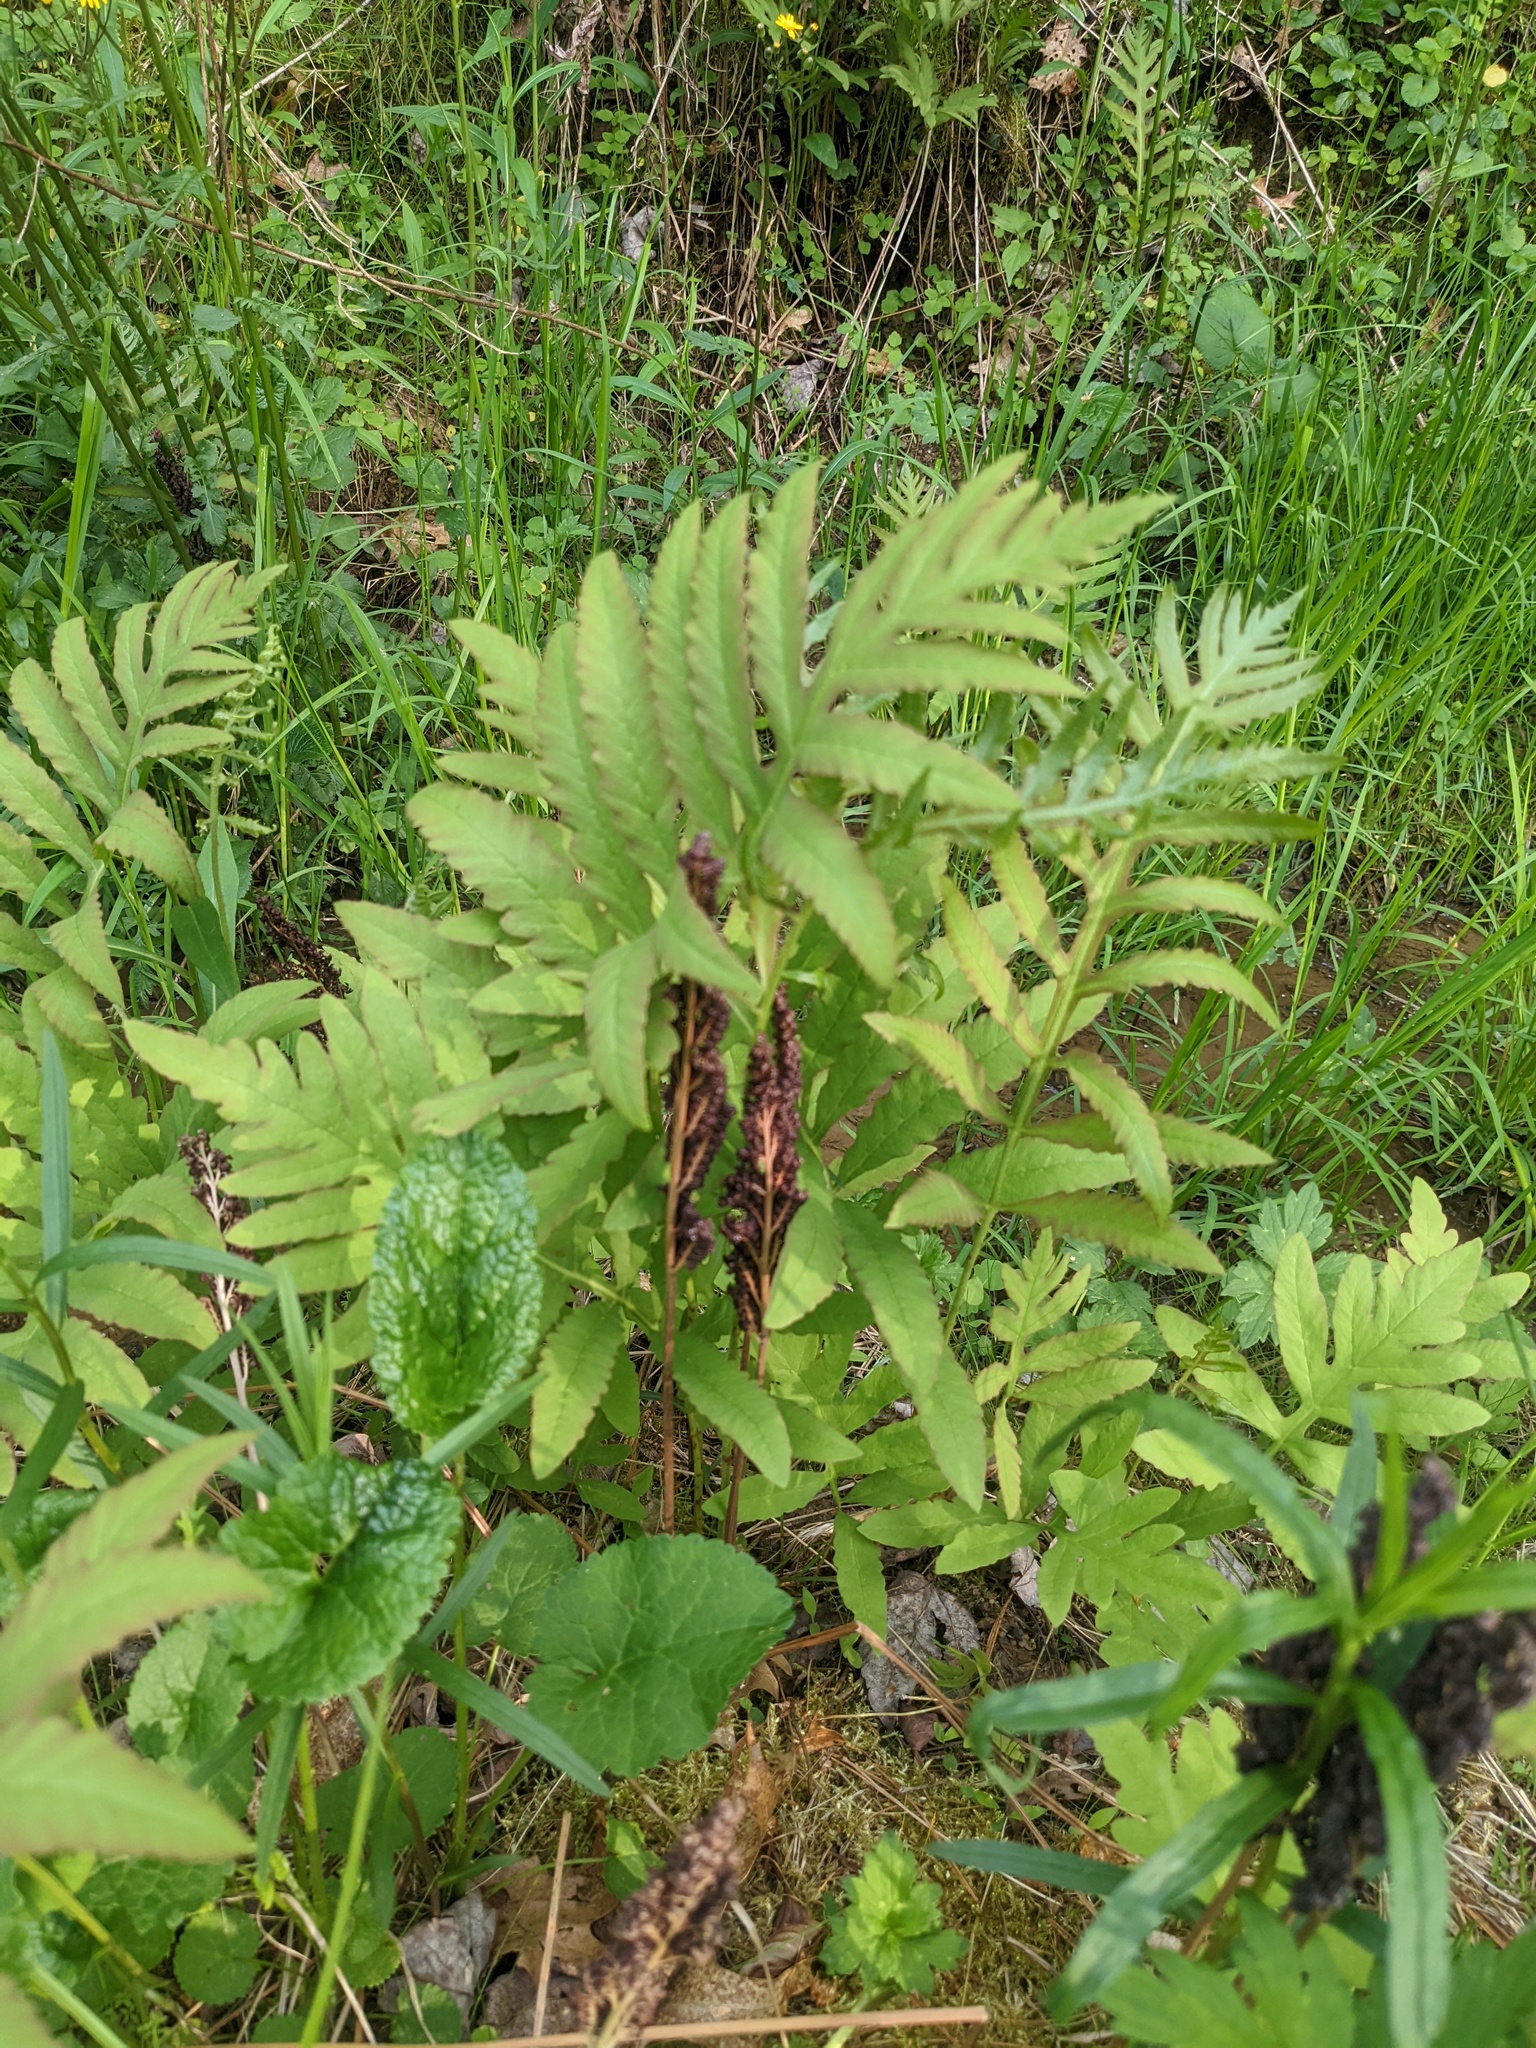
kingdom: Plantae
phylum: Tracheophyta
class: Polypodiopsida
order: Polypodiales
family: Onocleaceae
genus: Onoclea
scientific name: Onoclea sensibilis
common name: Sensitive fern
